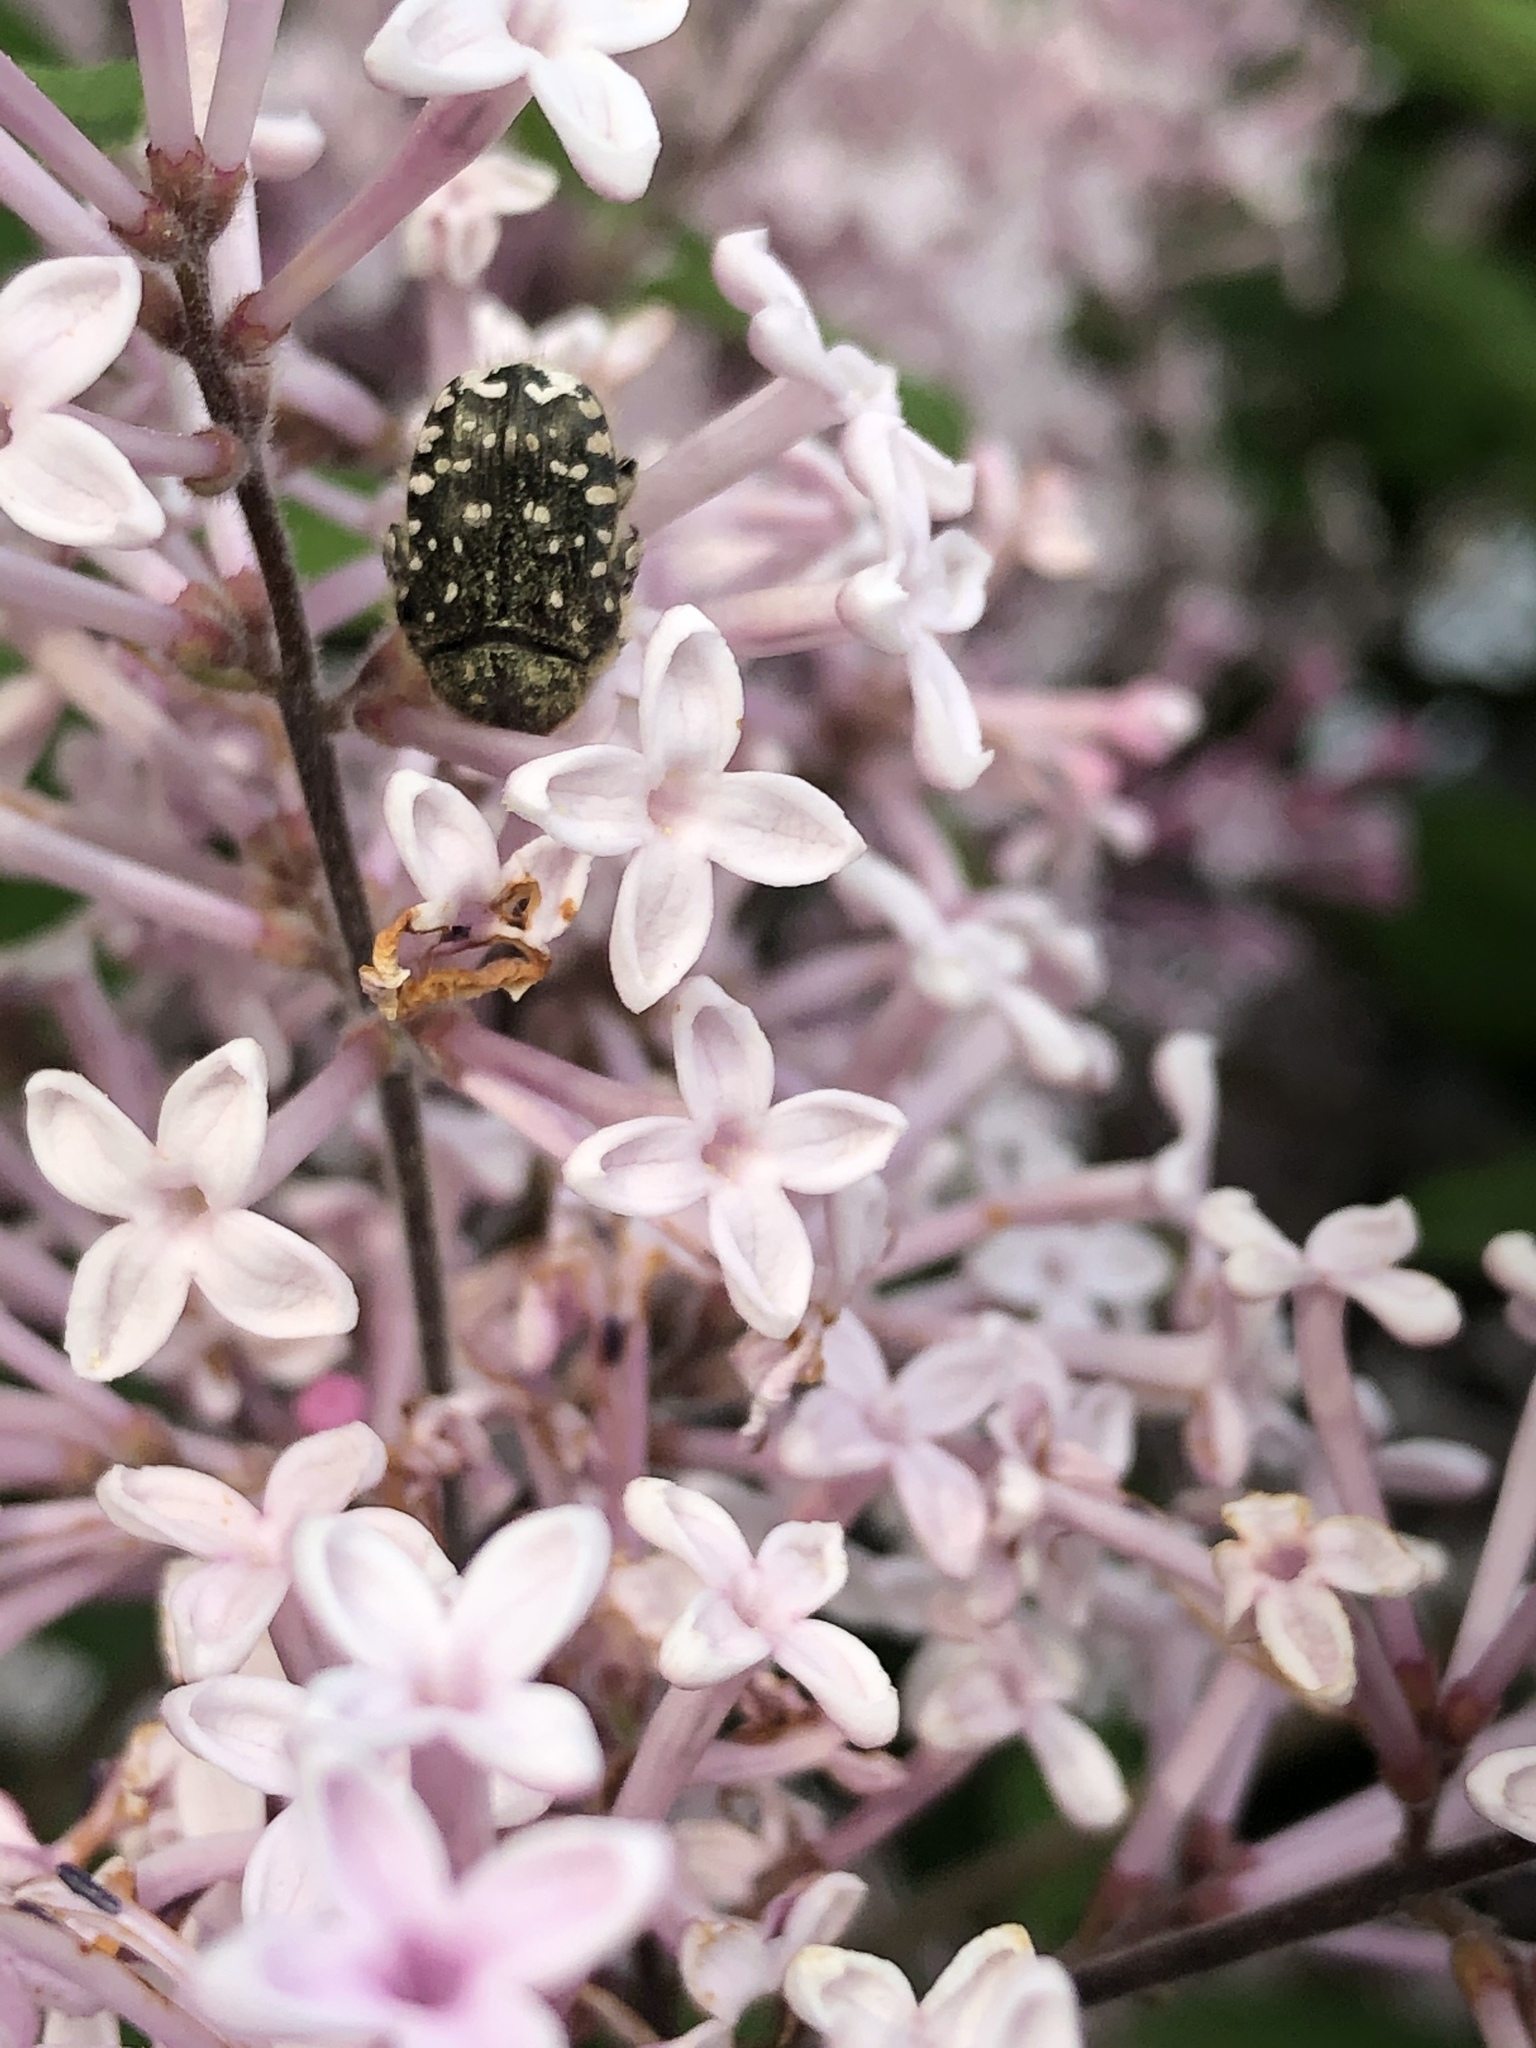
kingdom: Animalia
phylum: Arthropoda
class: Insecta
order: Coleoptera
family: Scarabaeidae
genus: Oxythyrea
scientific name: Oxythyrea funesta
